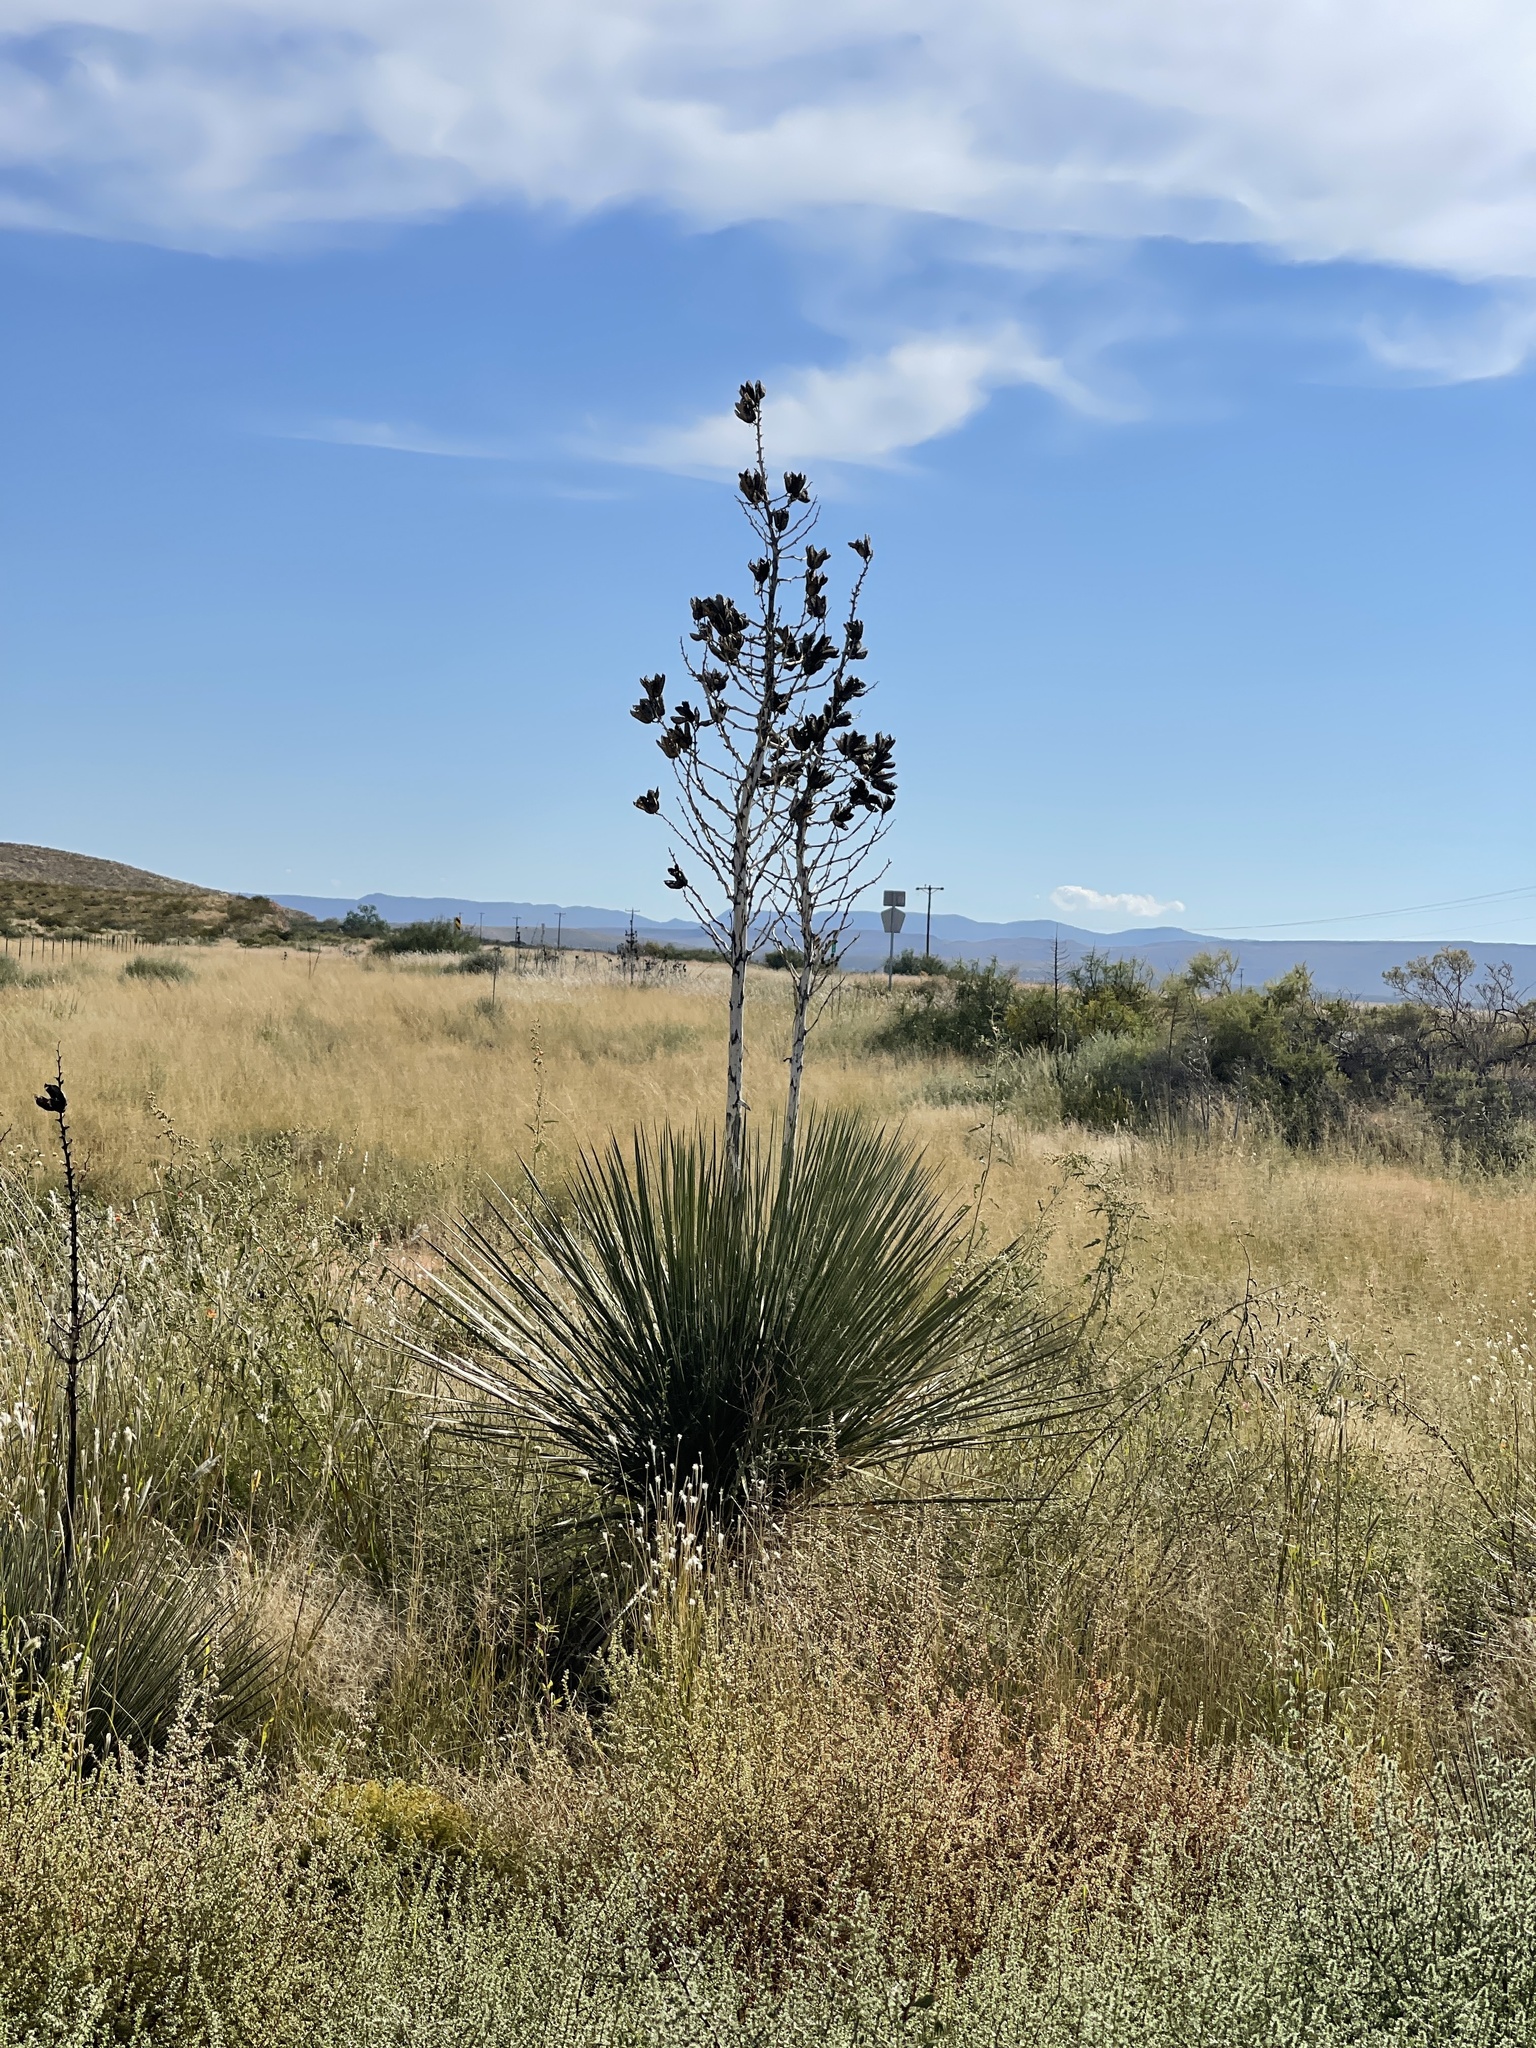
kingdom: Plantae
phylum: Tracheophyta
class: Liliopsida
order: Asparagales
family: Asparagaceae
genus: Yucca
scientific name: Yucca elata
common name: Palmella
